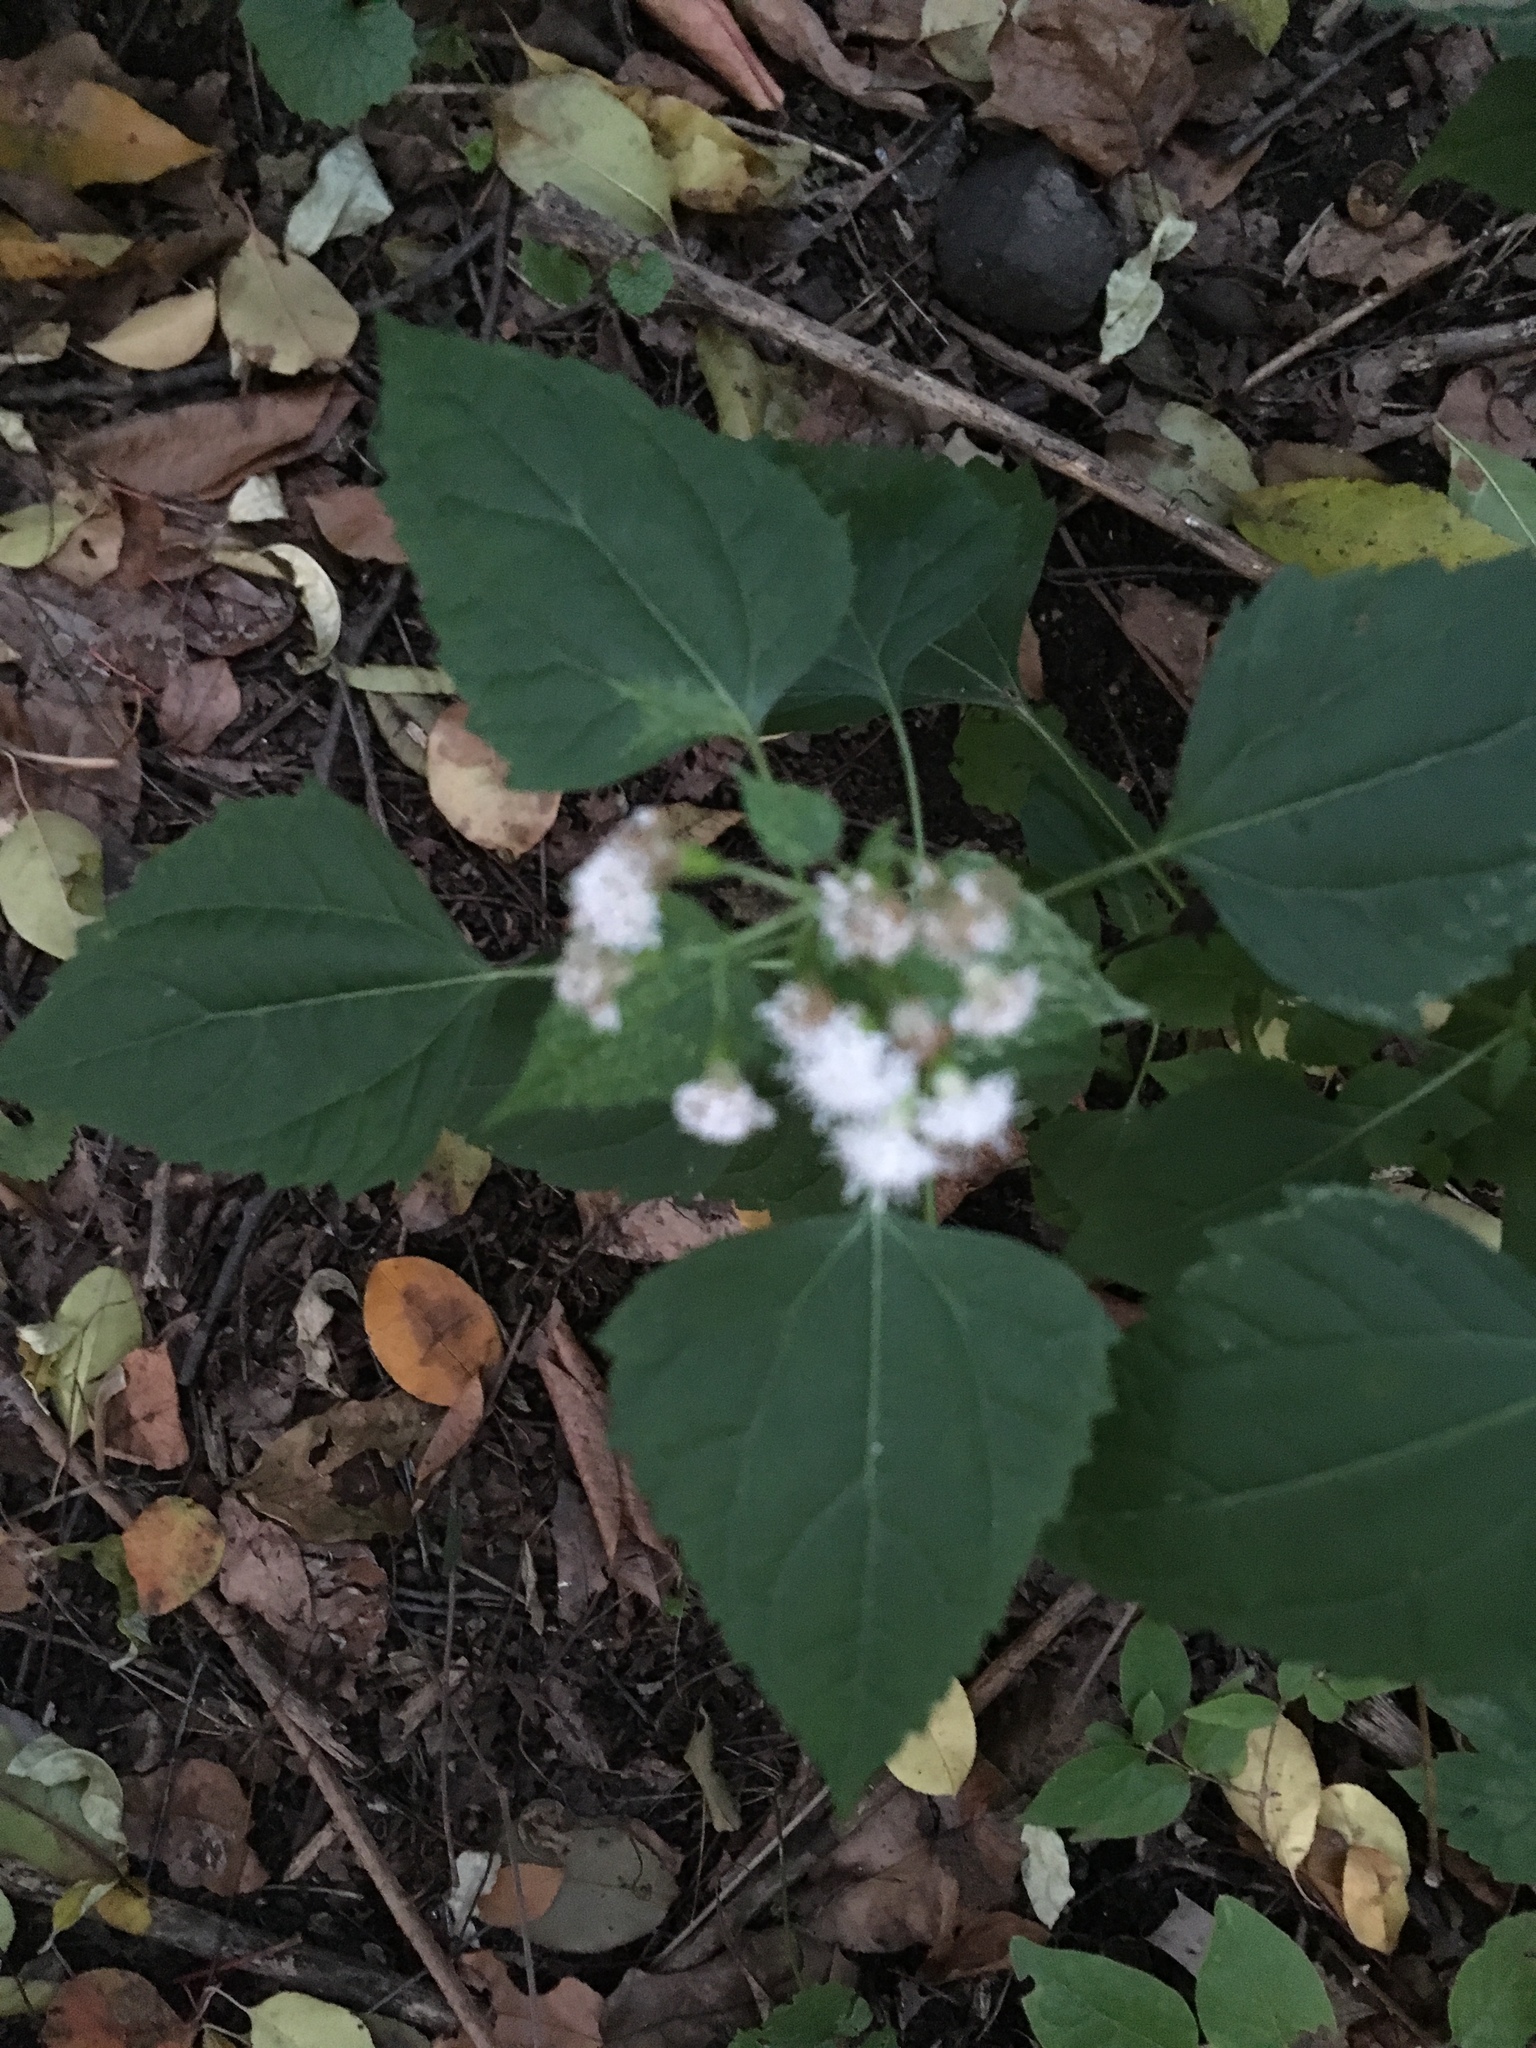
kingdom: Plantae
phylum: Tracheophyta
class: Magnoliopsida
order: Asterales
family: Asteraceae
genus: Ageratina
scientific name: Ageratina altissima
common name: White snakeroot
